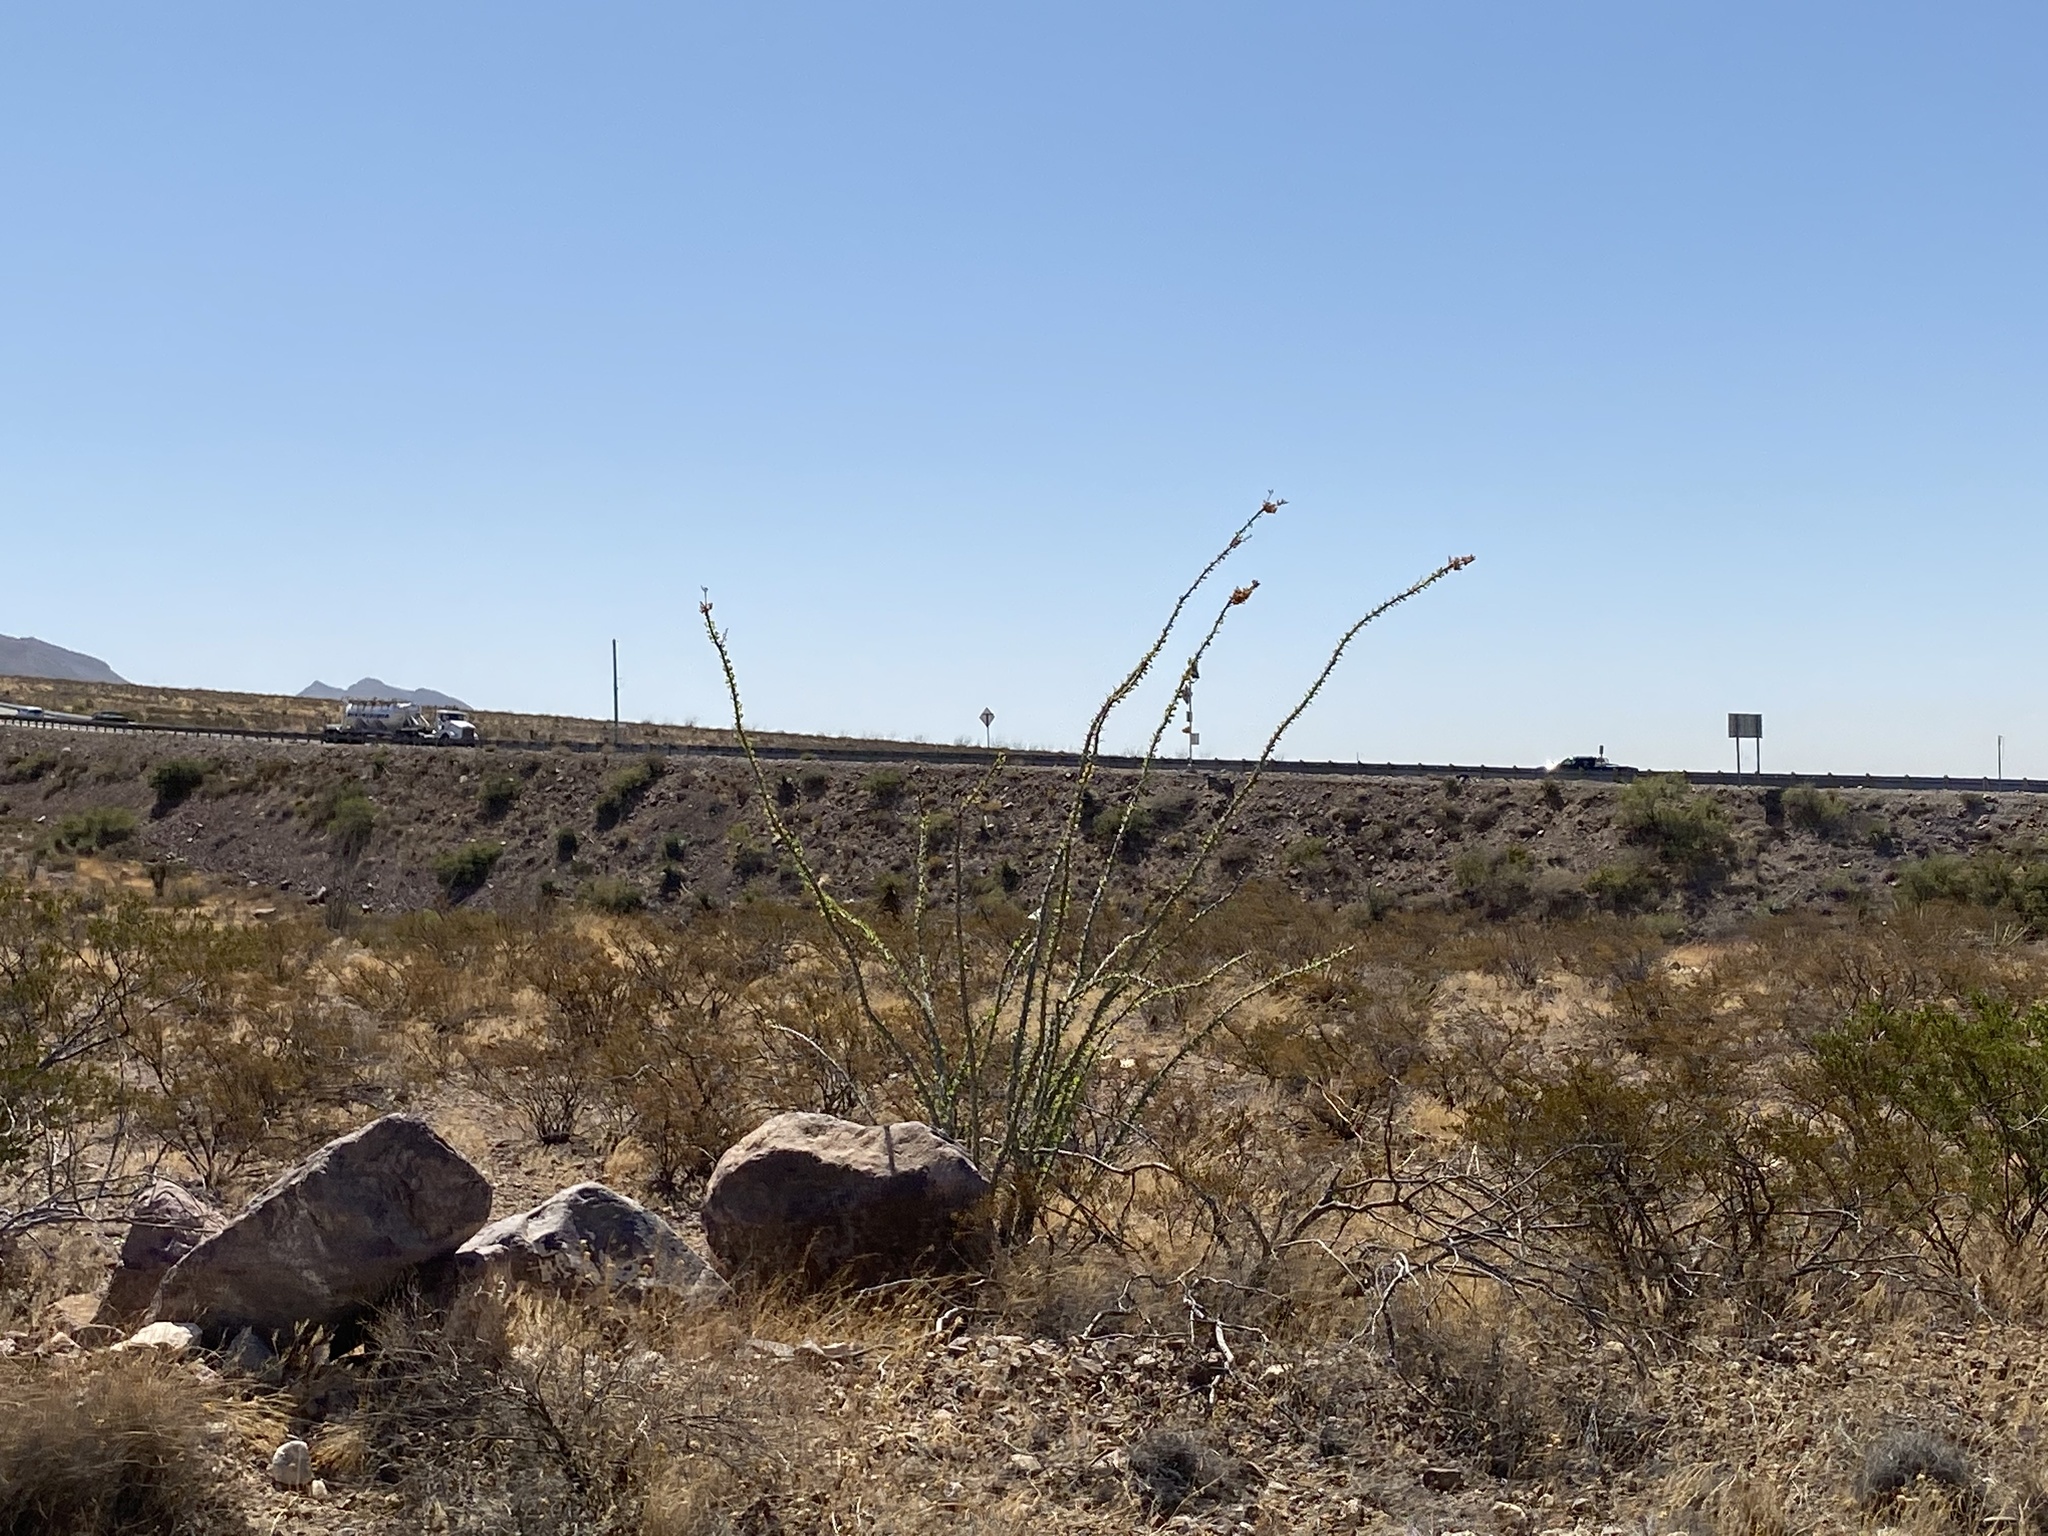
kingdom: Plantae
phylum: Tracheophyta
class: Magnoliopsida
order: Ericales
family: Fouquieriaceae
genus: Fouquieria
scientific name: Fouquieria splendens
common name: Vine-cactus
